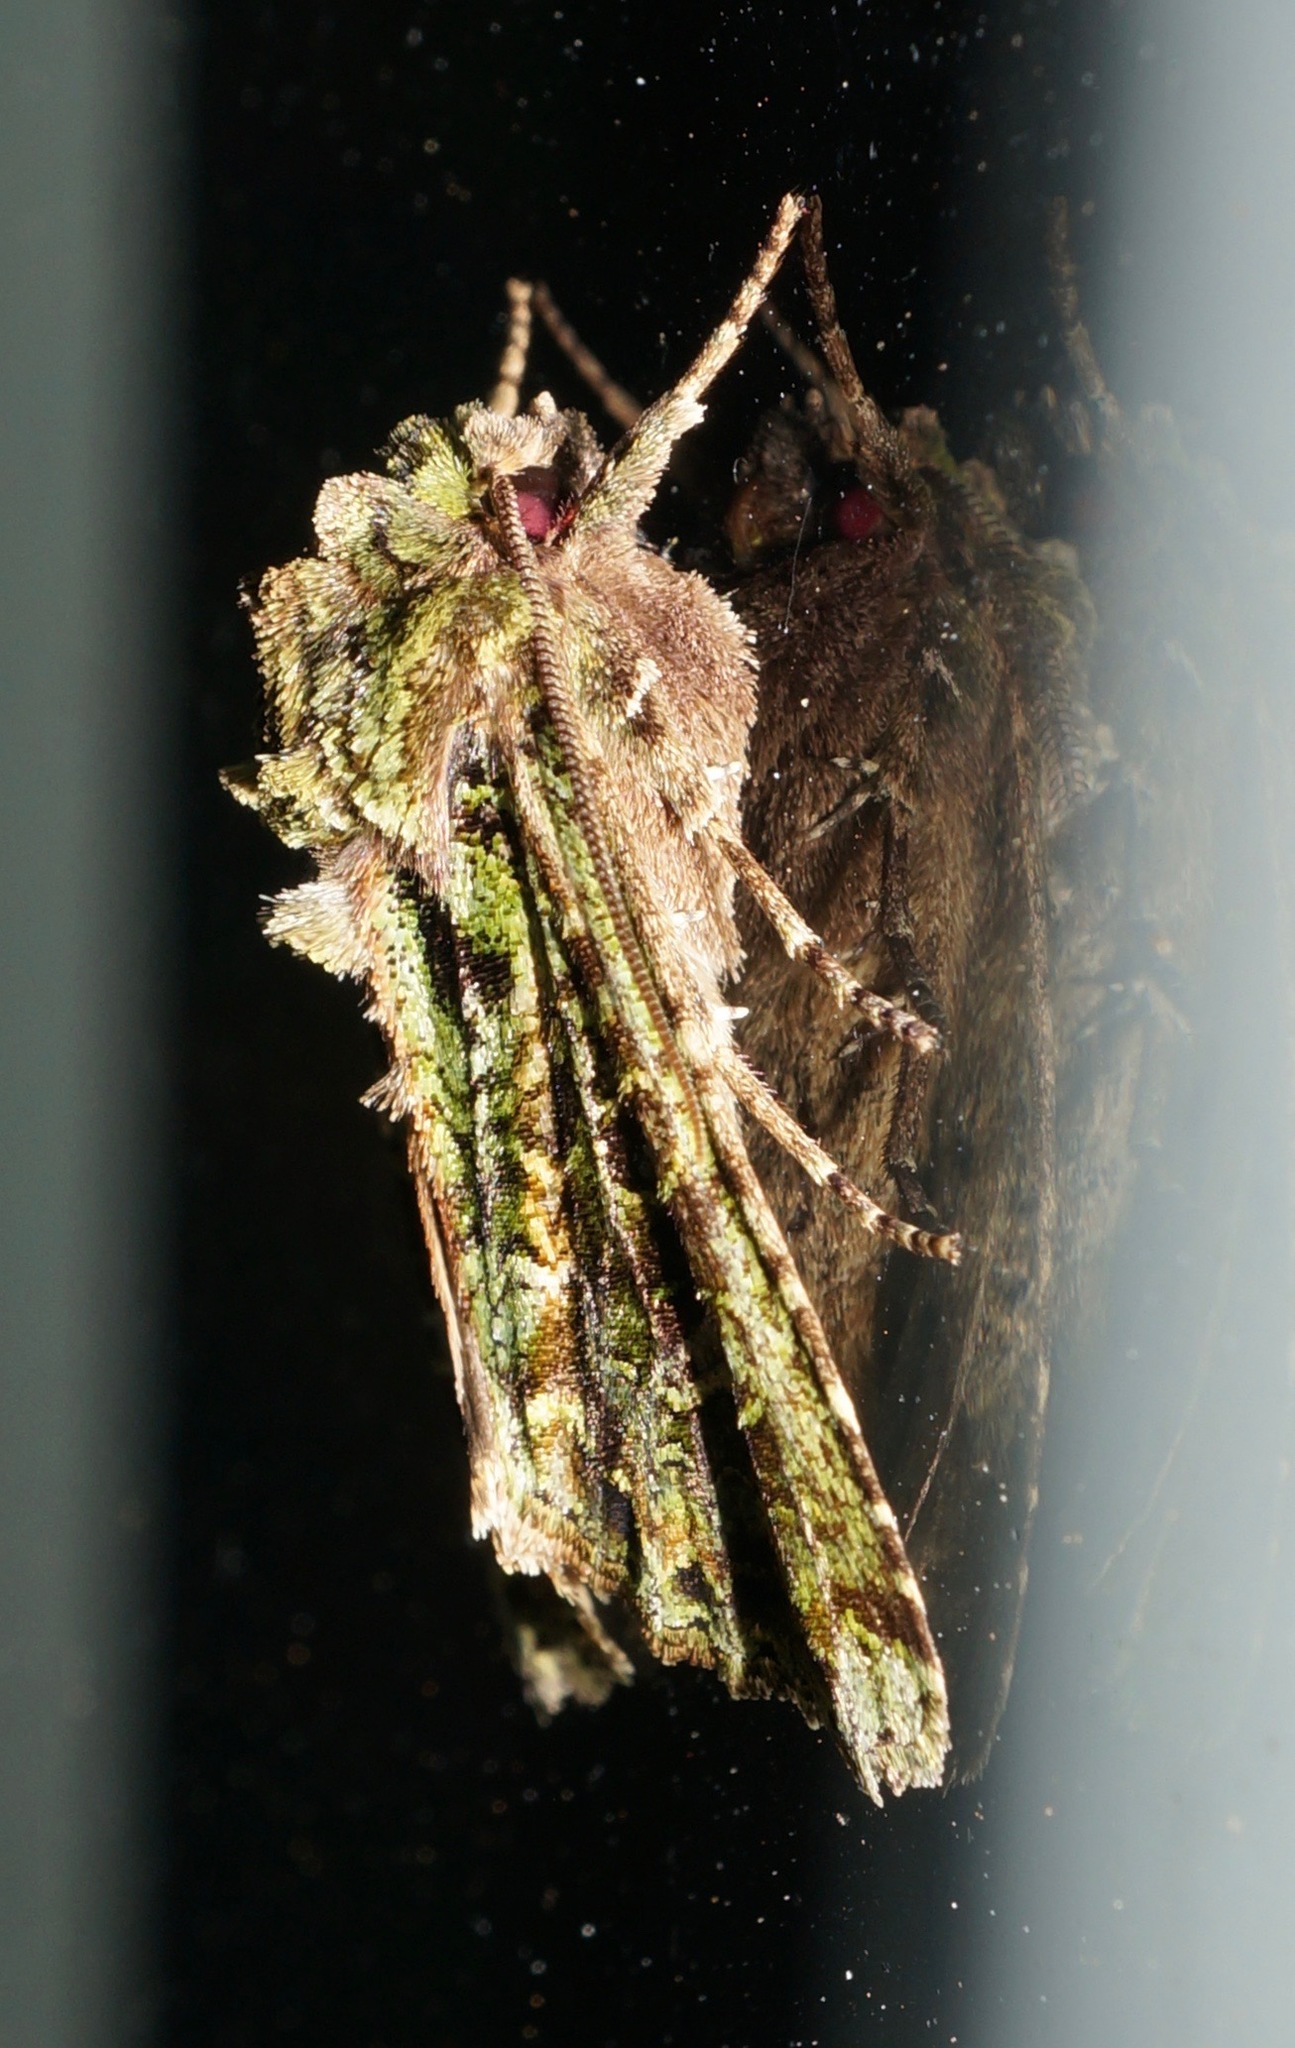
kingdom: Animalia
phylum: Arthropoda
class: Insecta
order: Lepidoptera
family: Noctuidae
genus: Ichneutica
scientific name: Ichneutica
